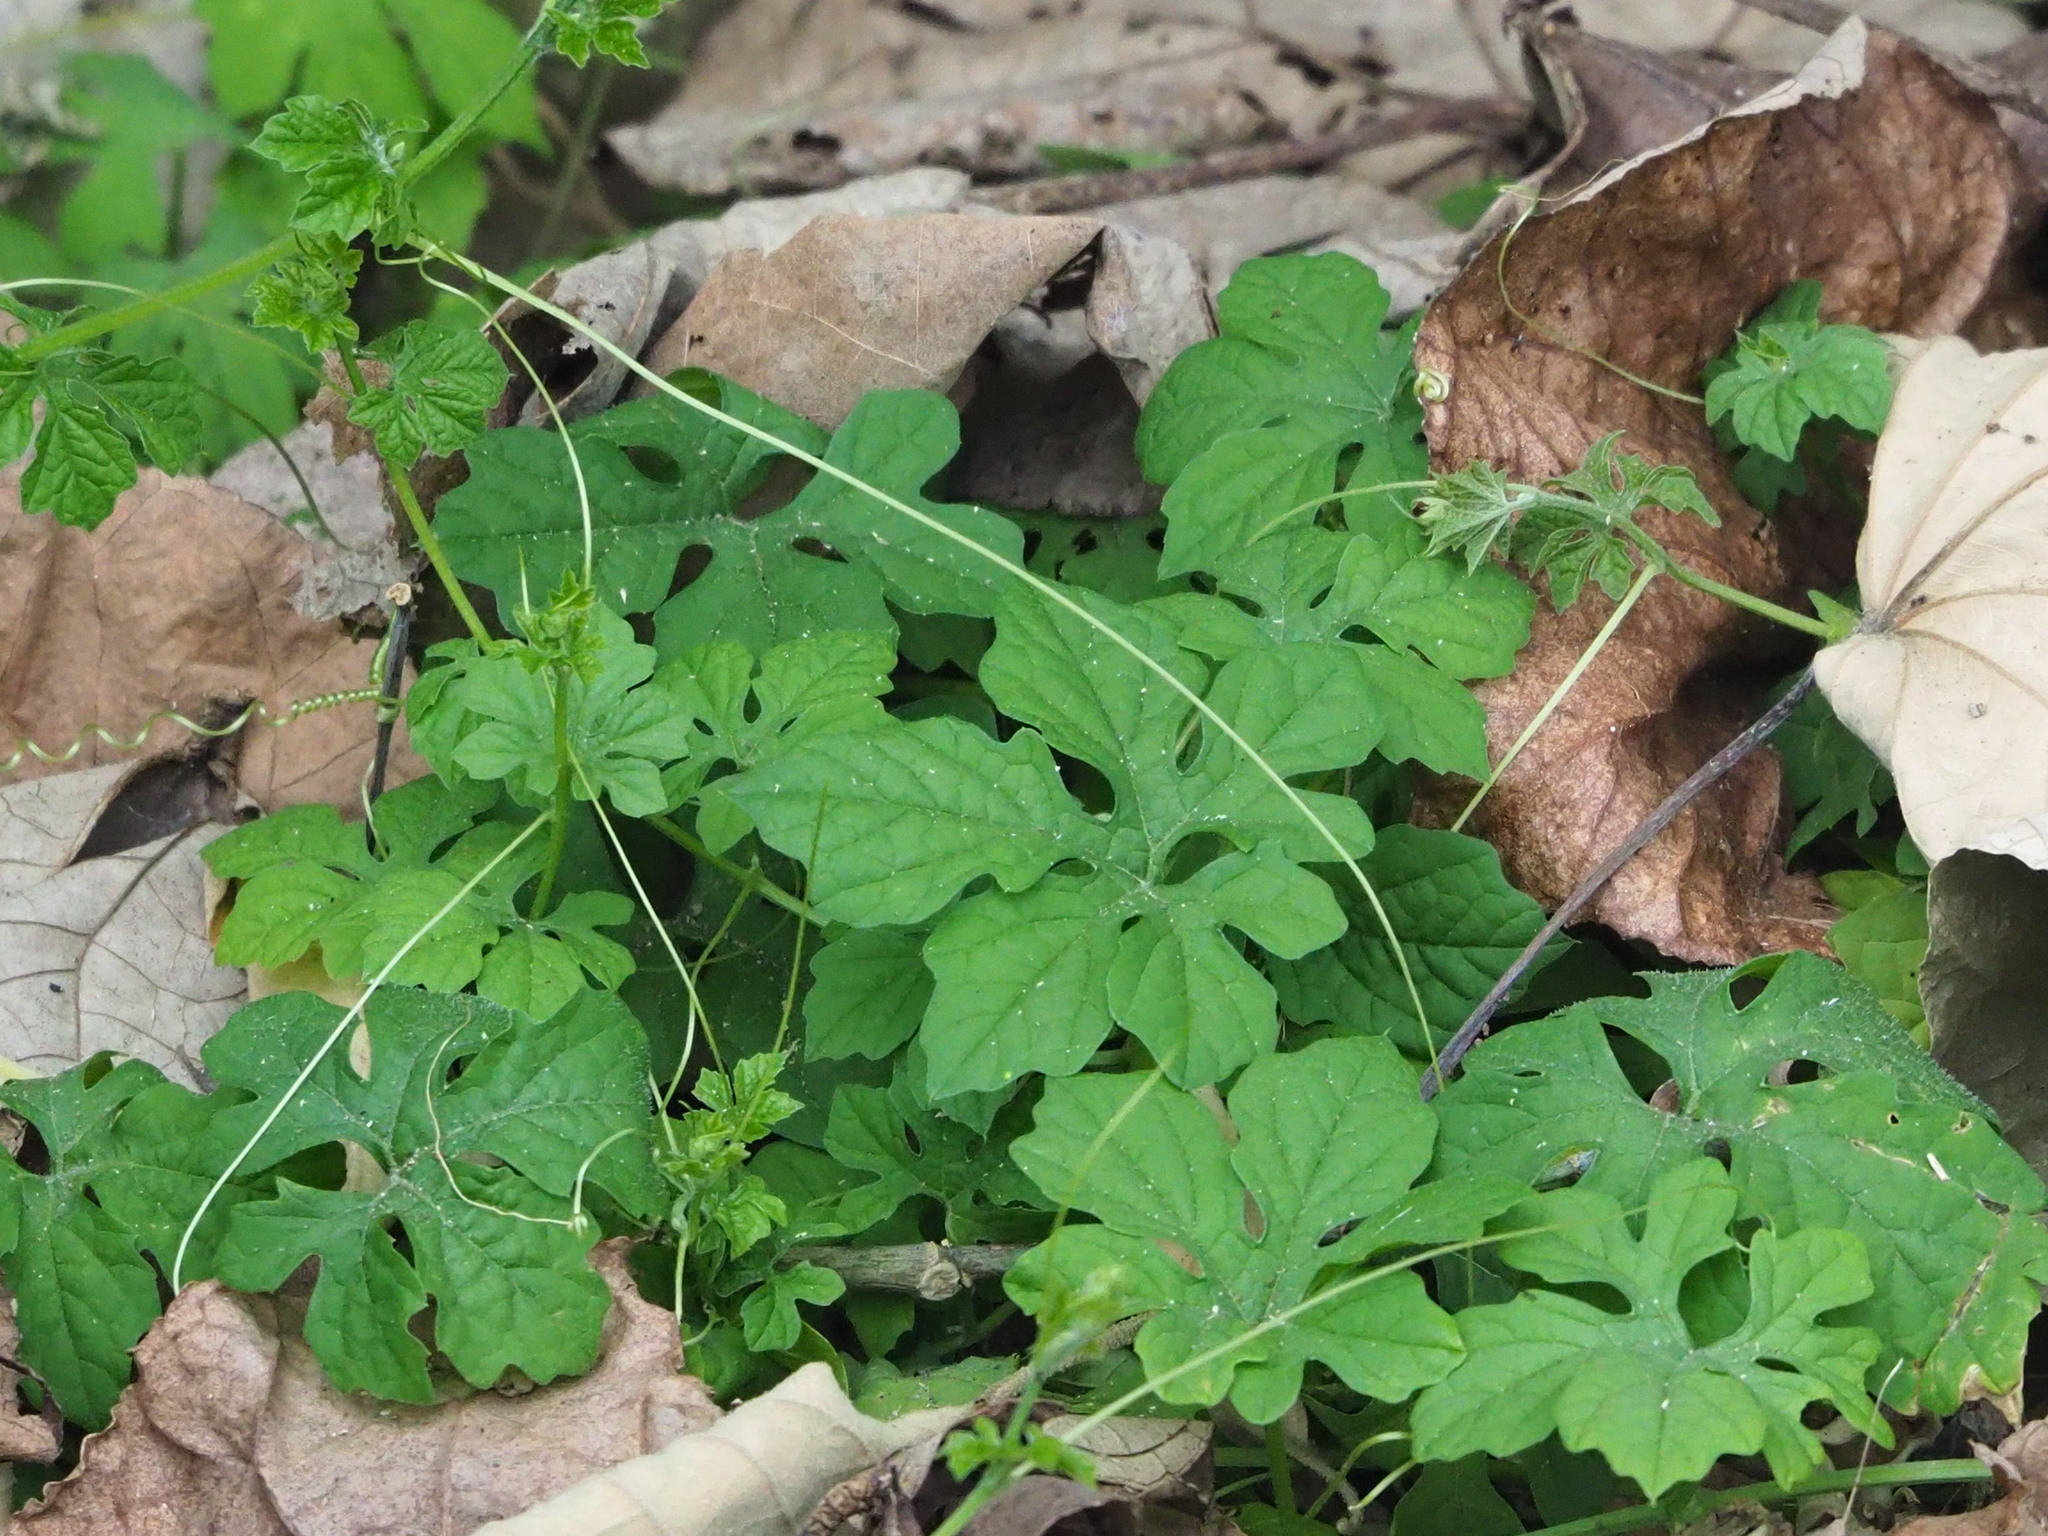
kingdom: Plantae
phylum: Tracheophyta
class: Magnoliopsida
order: Cucurbitales
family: Cucurbitaceae
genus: Momordica
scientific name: Momordica charantia
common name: Balsampear
